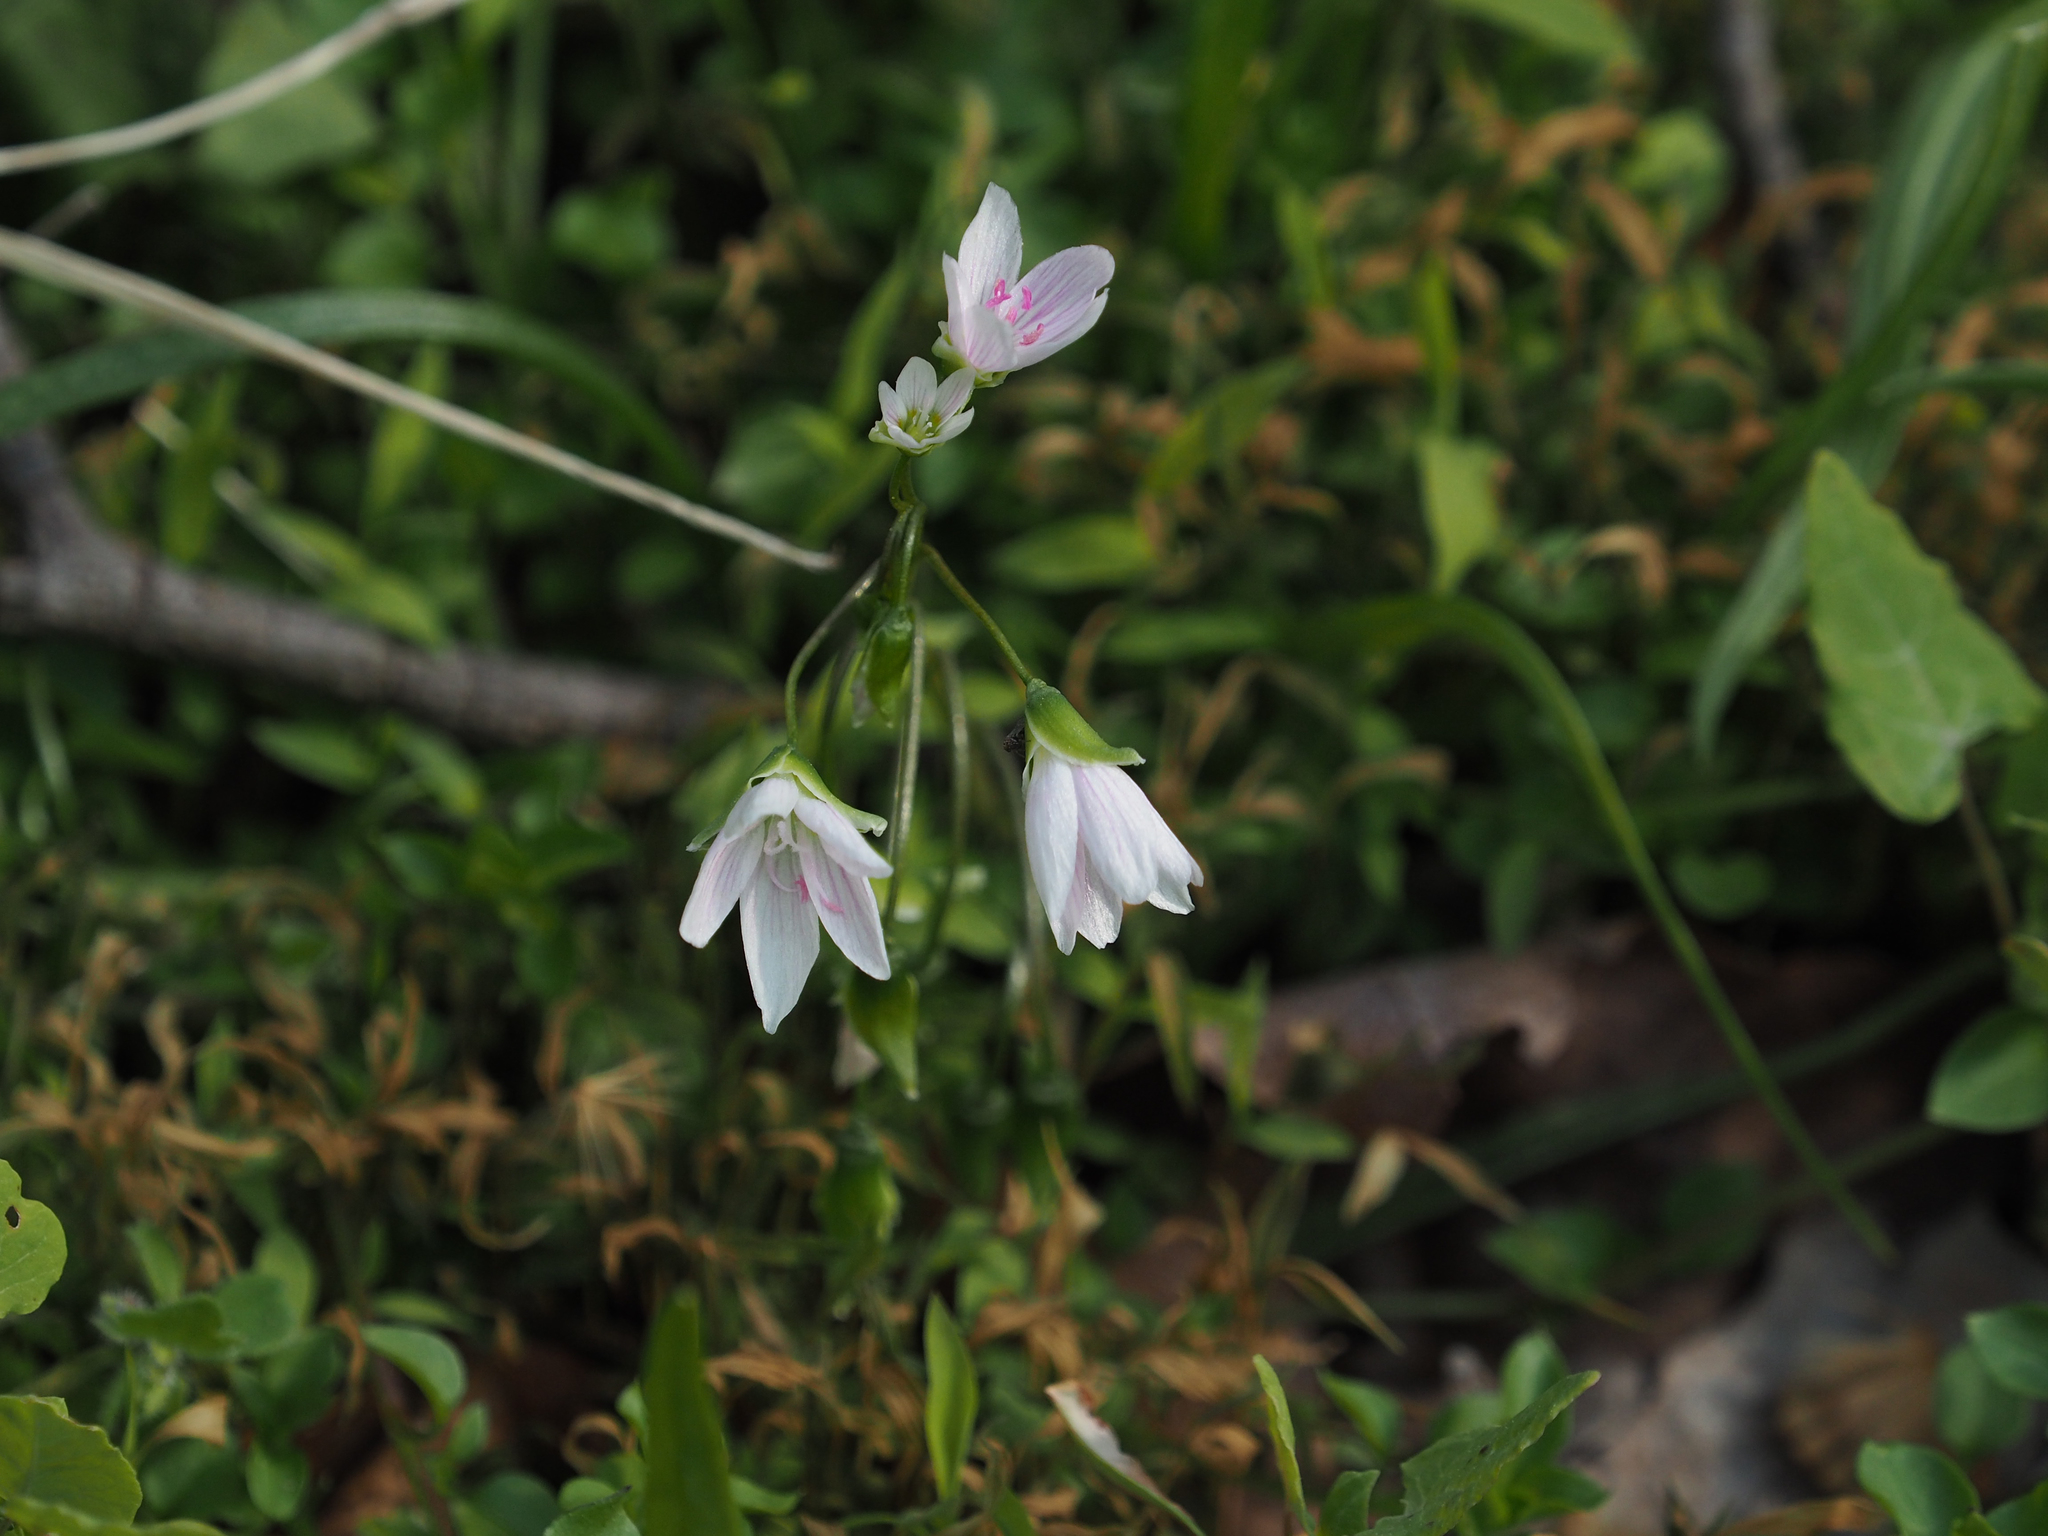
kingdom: Plantae
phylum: Tracheophyta
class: Magnoliopsida
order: Caryophyllales
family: Montiaceae
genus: Claytonia
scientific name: Claytonia virginica
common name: Virginia springbeauty
